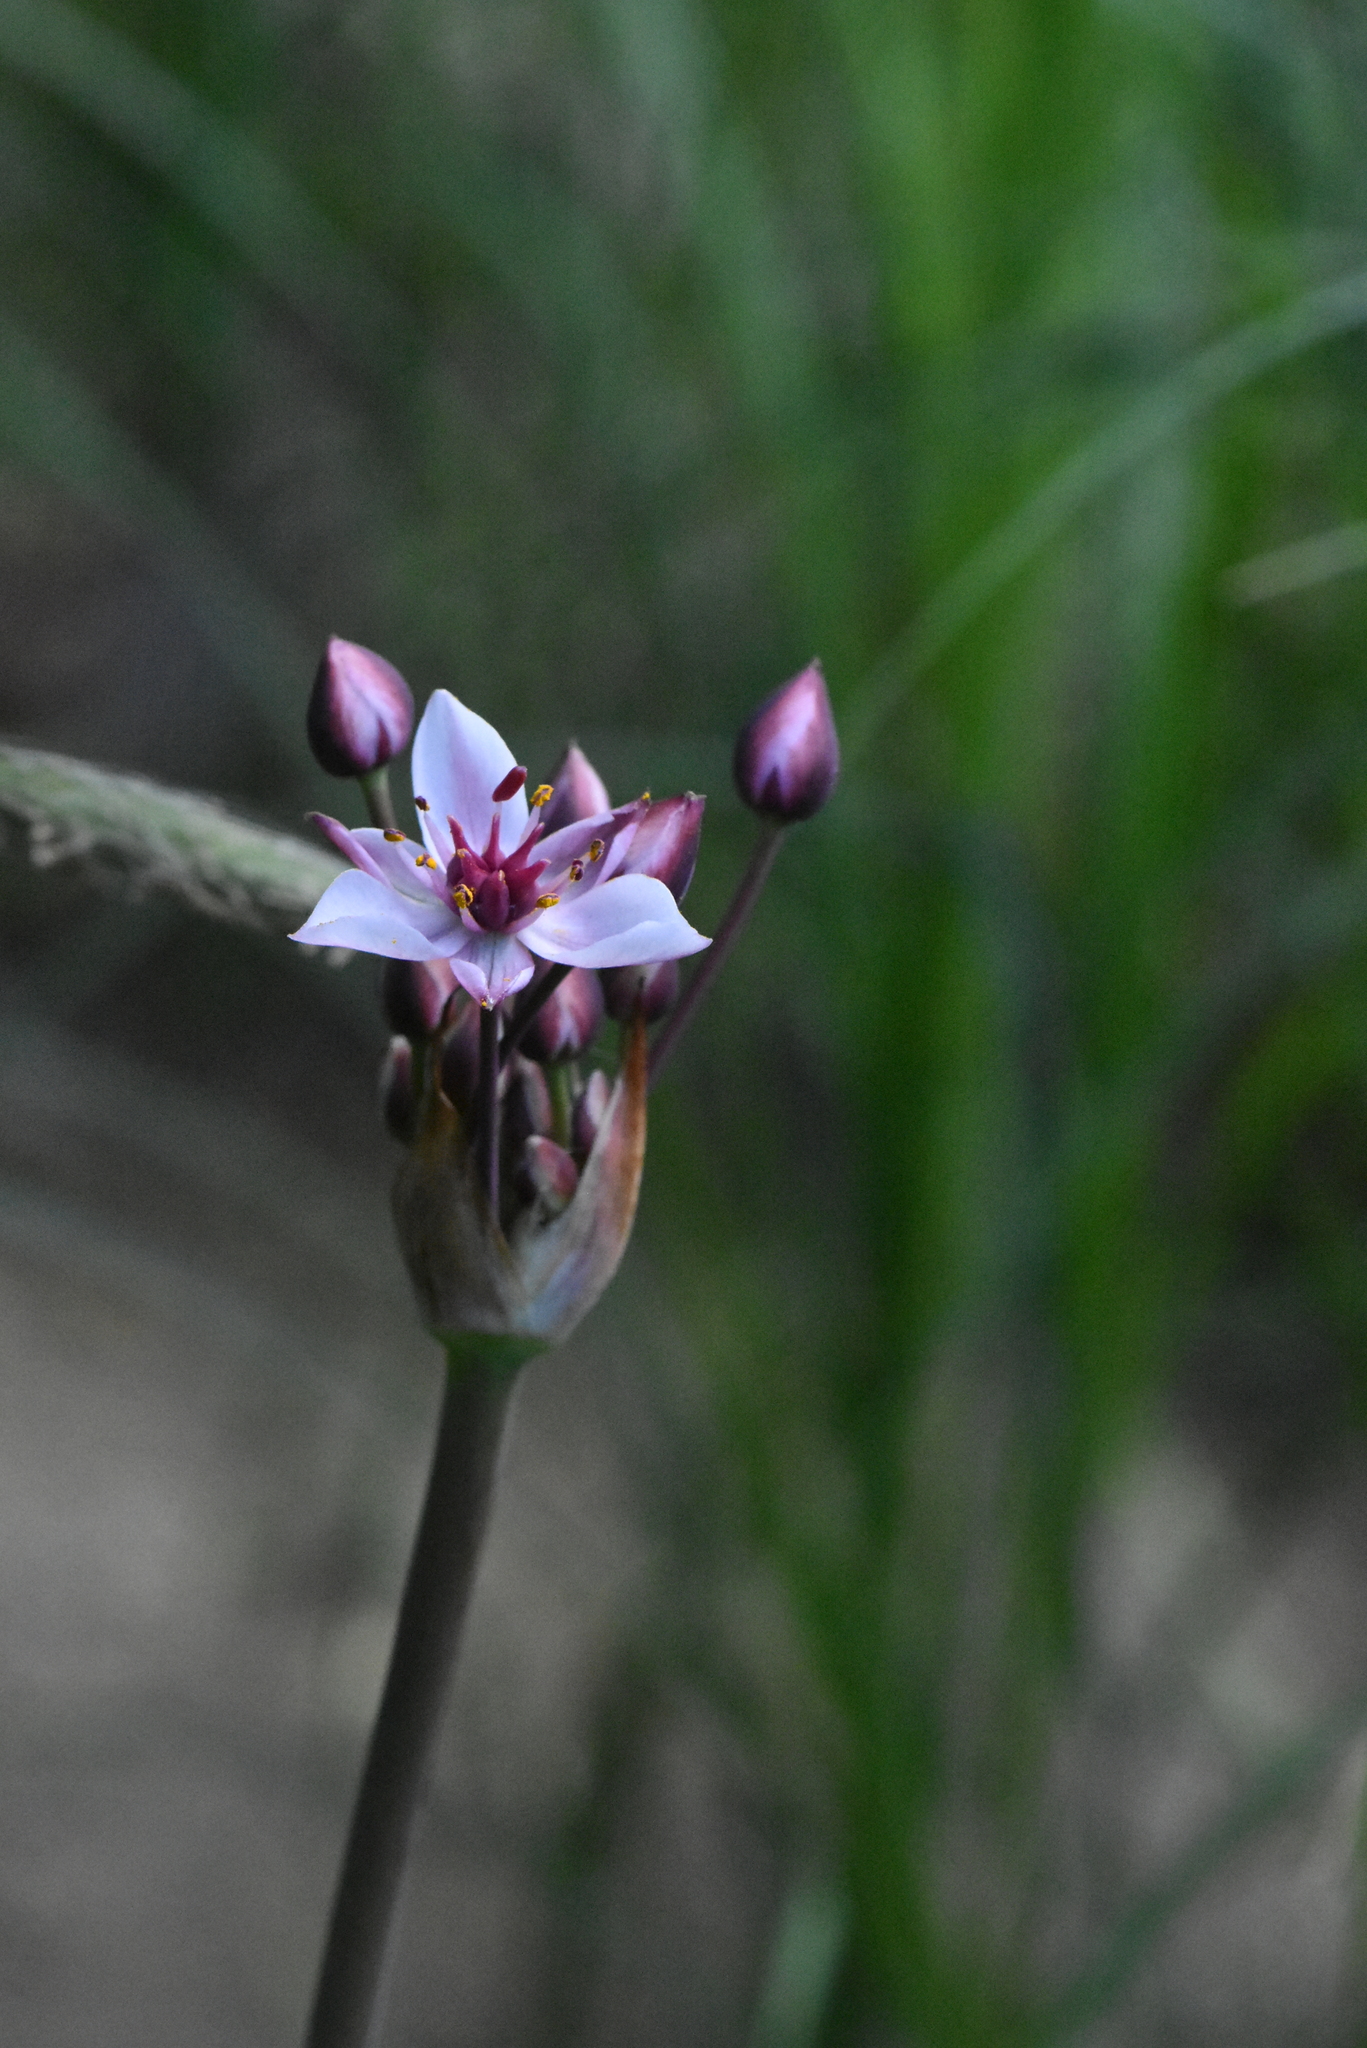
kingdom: Plantae
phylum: Tracheophyta
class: Liliopsida
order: Alismatales
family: Butomaceae
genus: Butomus
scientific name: Butomus umbellatus
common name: Flowering-rush
